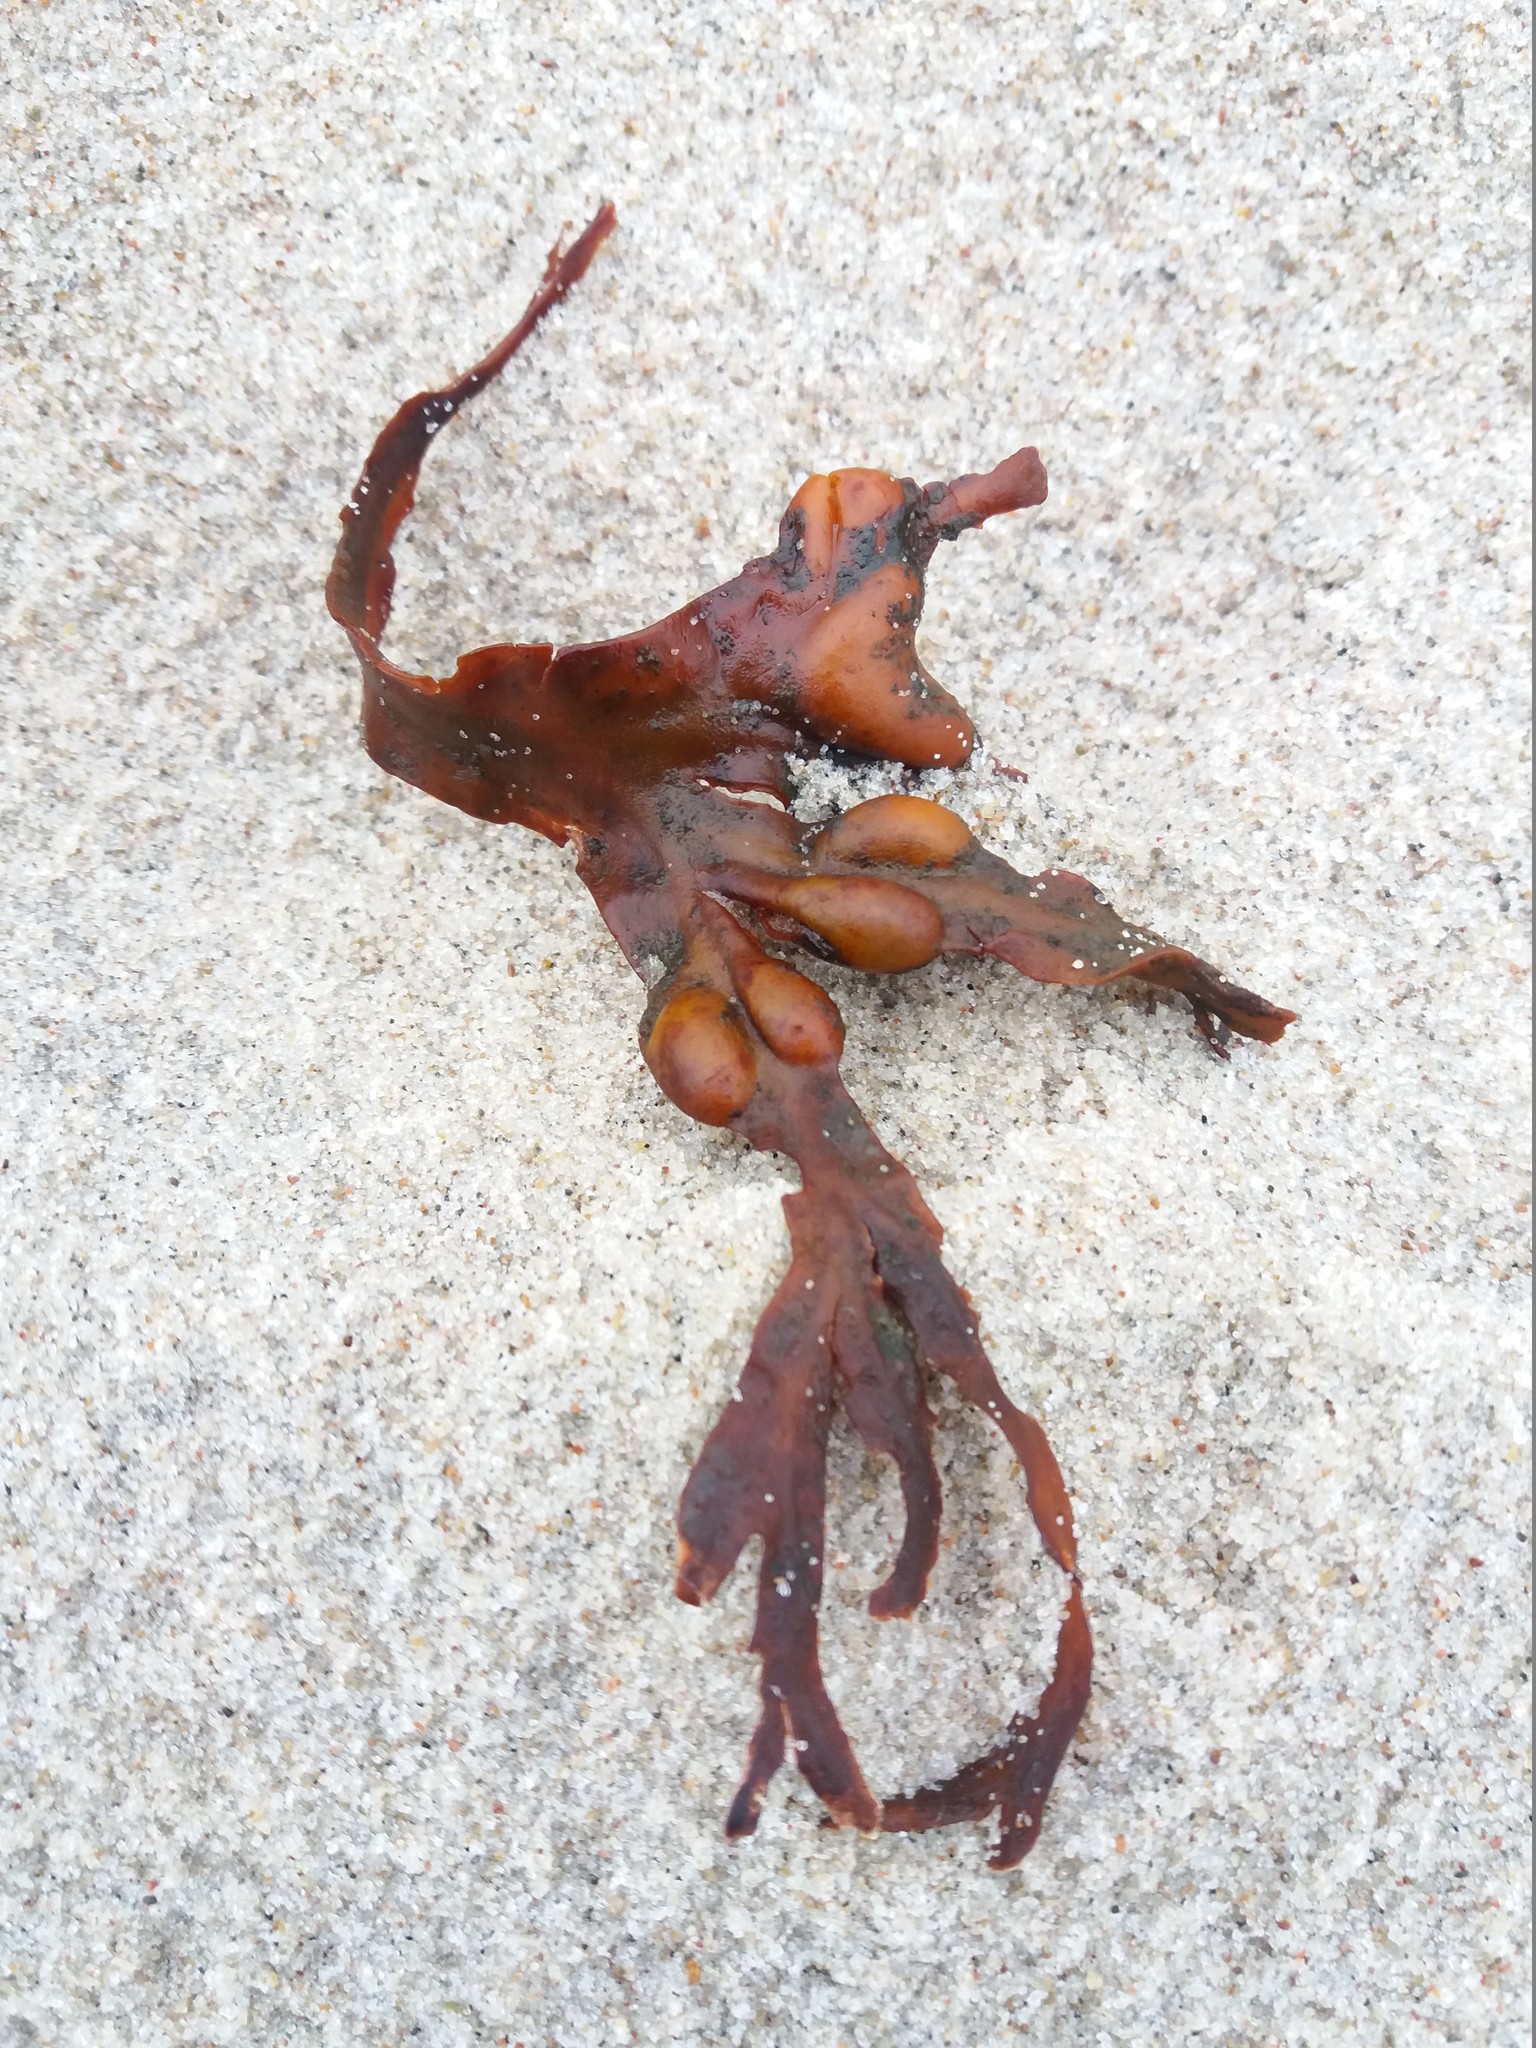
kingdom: Chromista
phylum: Ochrophyta
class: Phaeophyceae
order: Fucales
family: Fucaceae
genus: Fucus
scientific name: Fucus vesiculosus
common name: Bladder wrack
